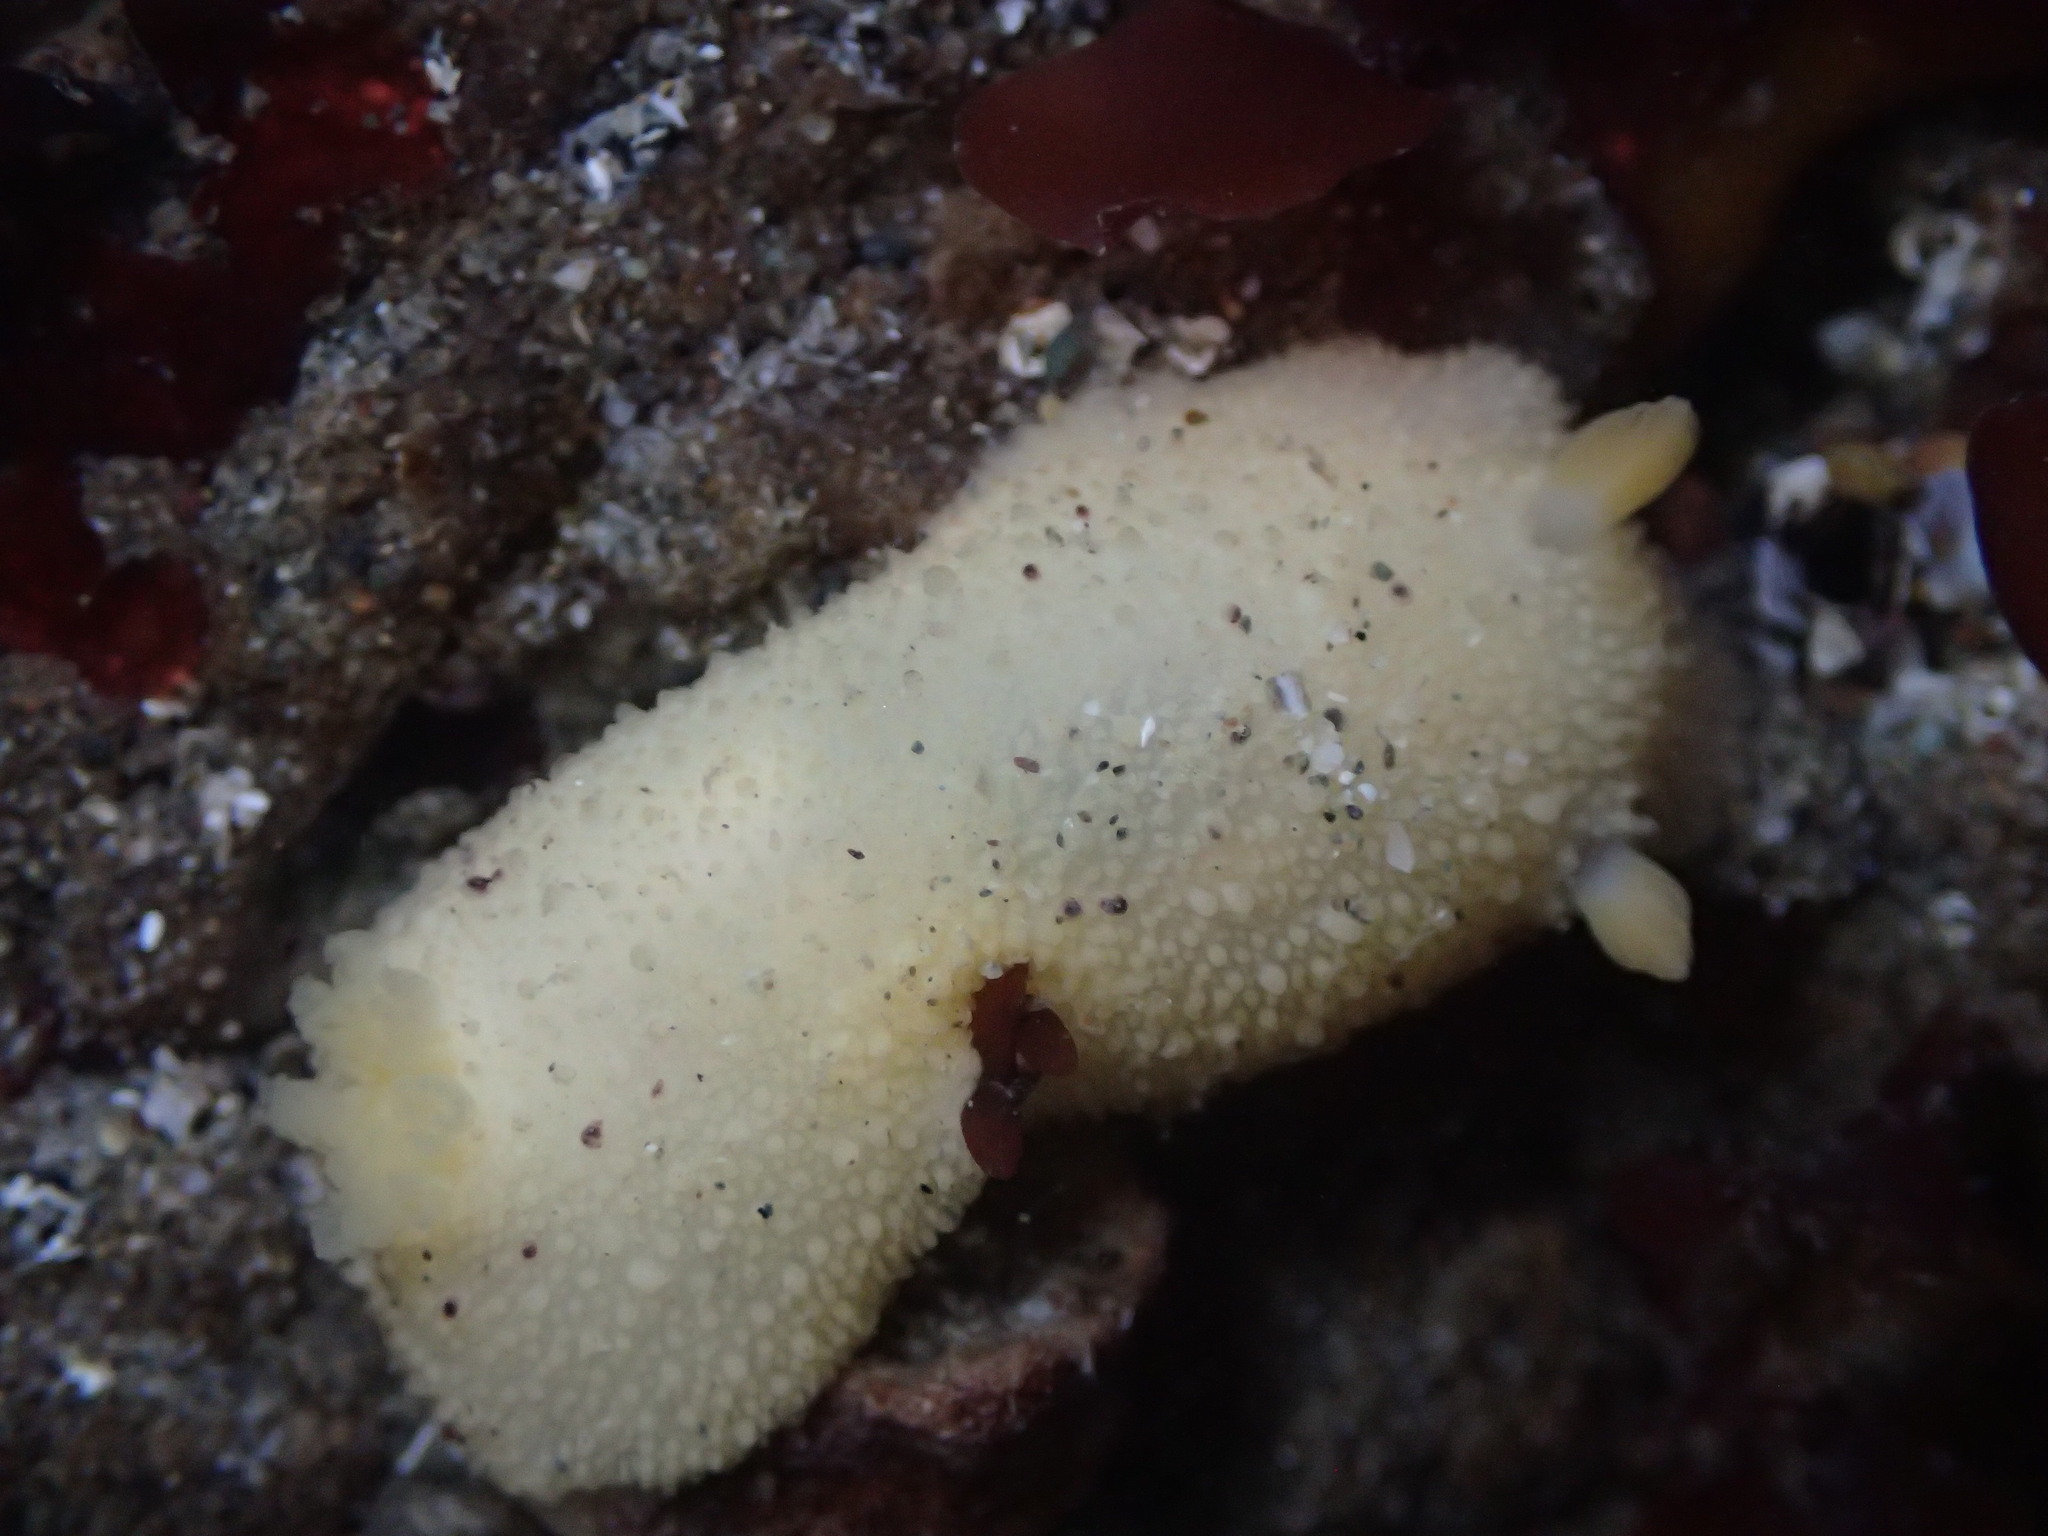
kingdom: Animalia
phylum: Mollusca
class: Gastropoda
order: Nudibranchia
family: Dorididae
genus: Doris
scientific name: Doris montereyensis
